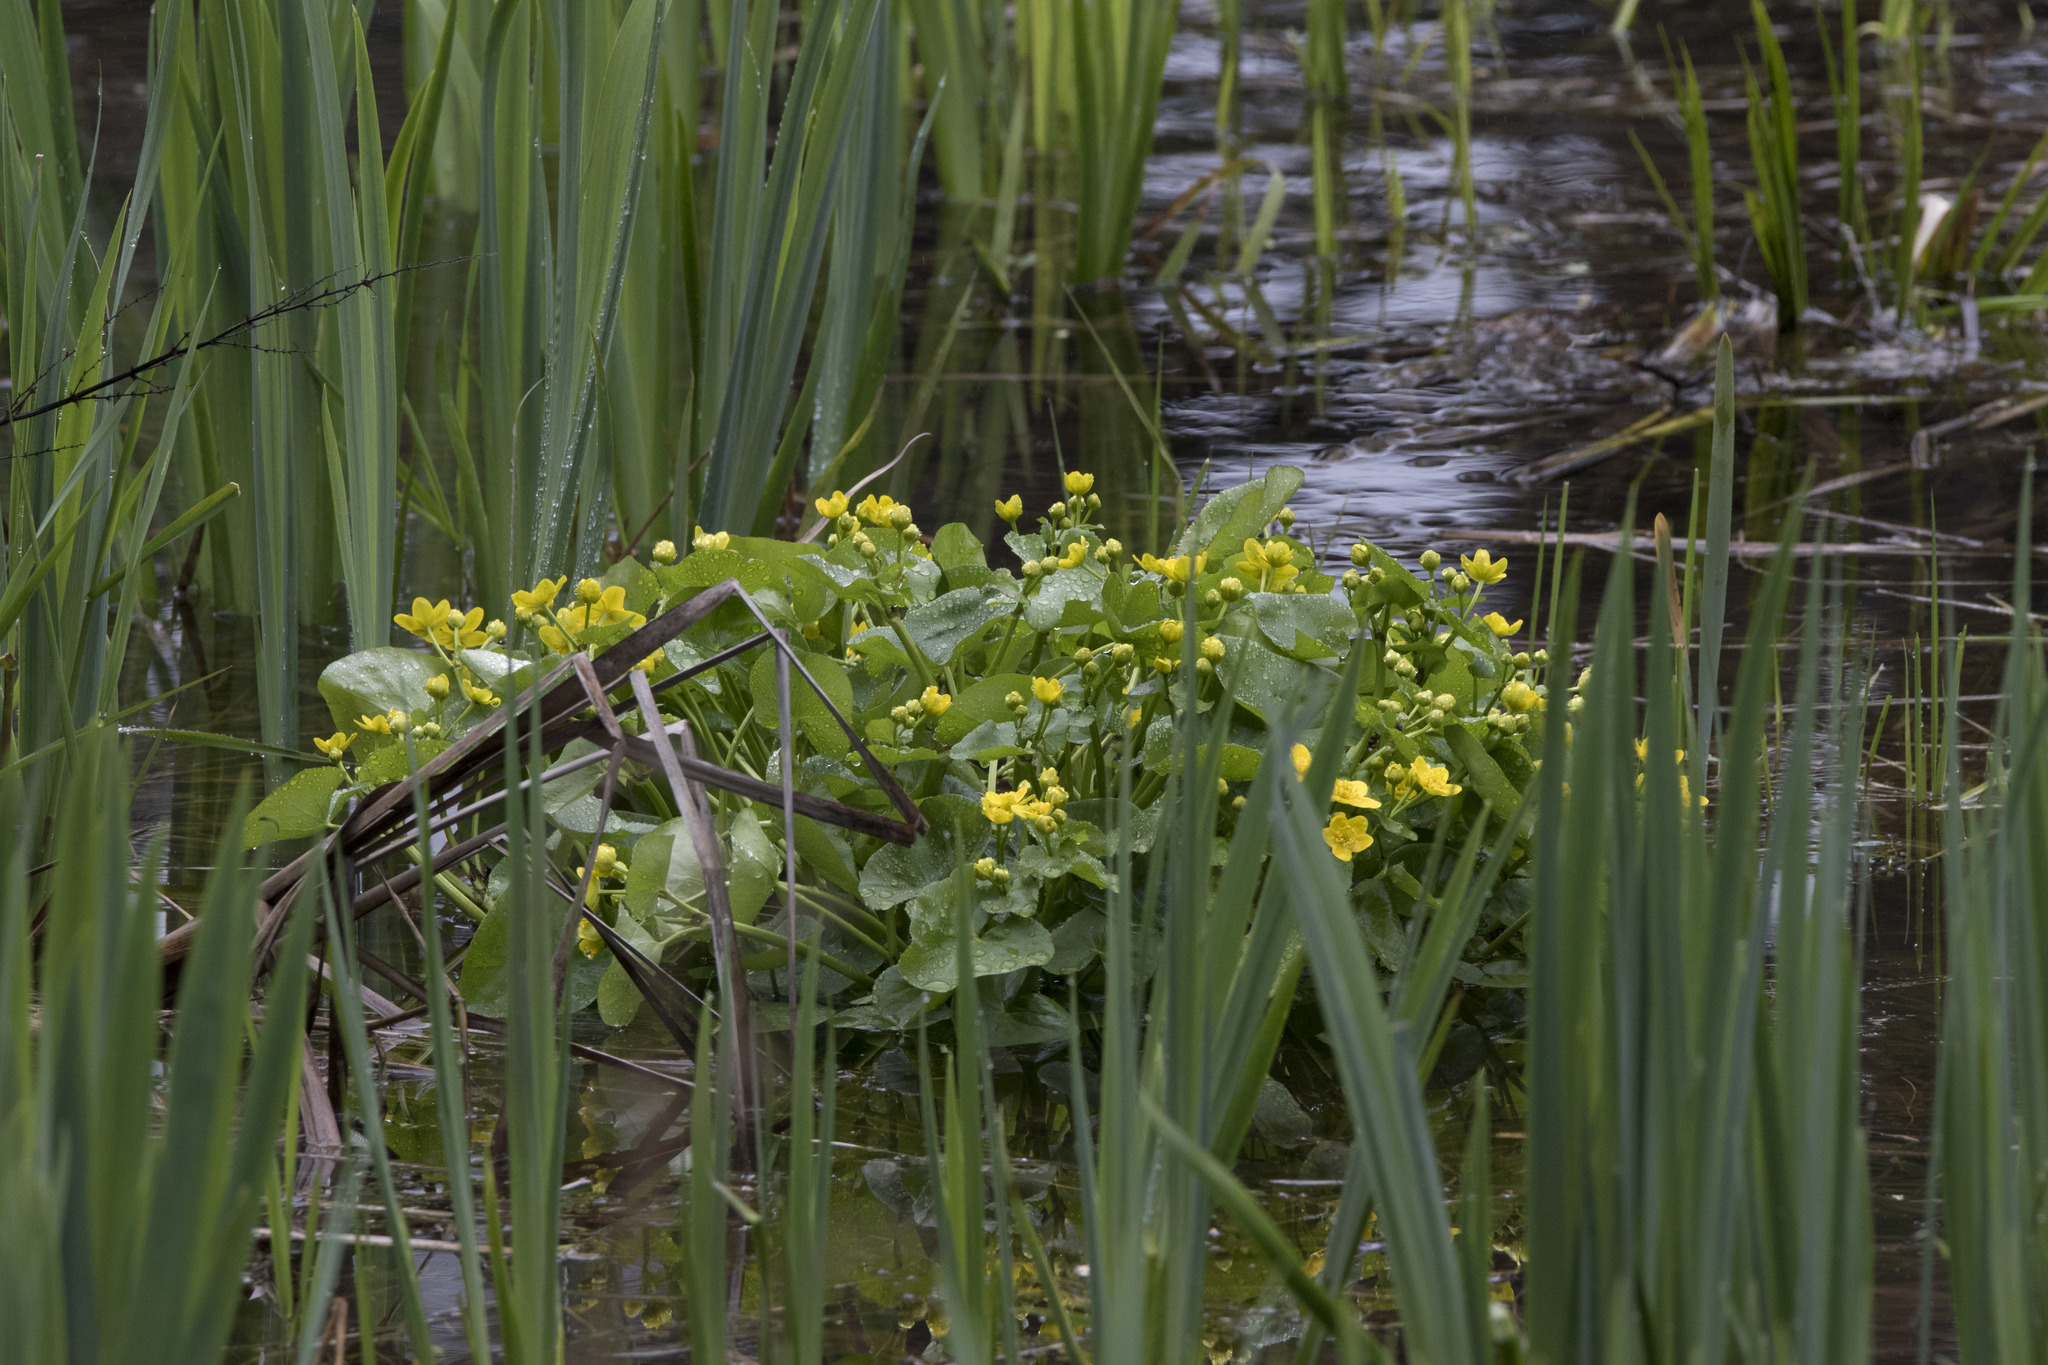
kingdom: Plantae
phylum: Tracheophyta
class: Magnoliopsida
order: Ranunculales
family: Ranunculaceae
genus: Caltha
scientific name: Caltha palustris
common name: Marsh marigold
